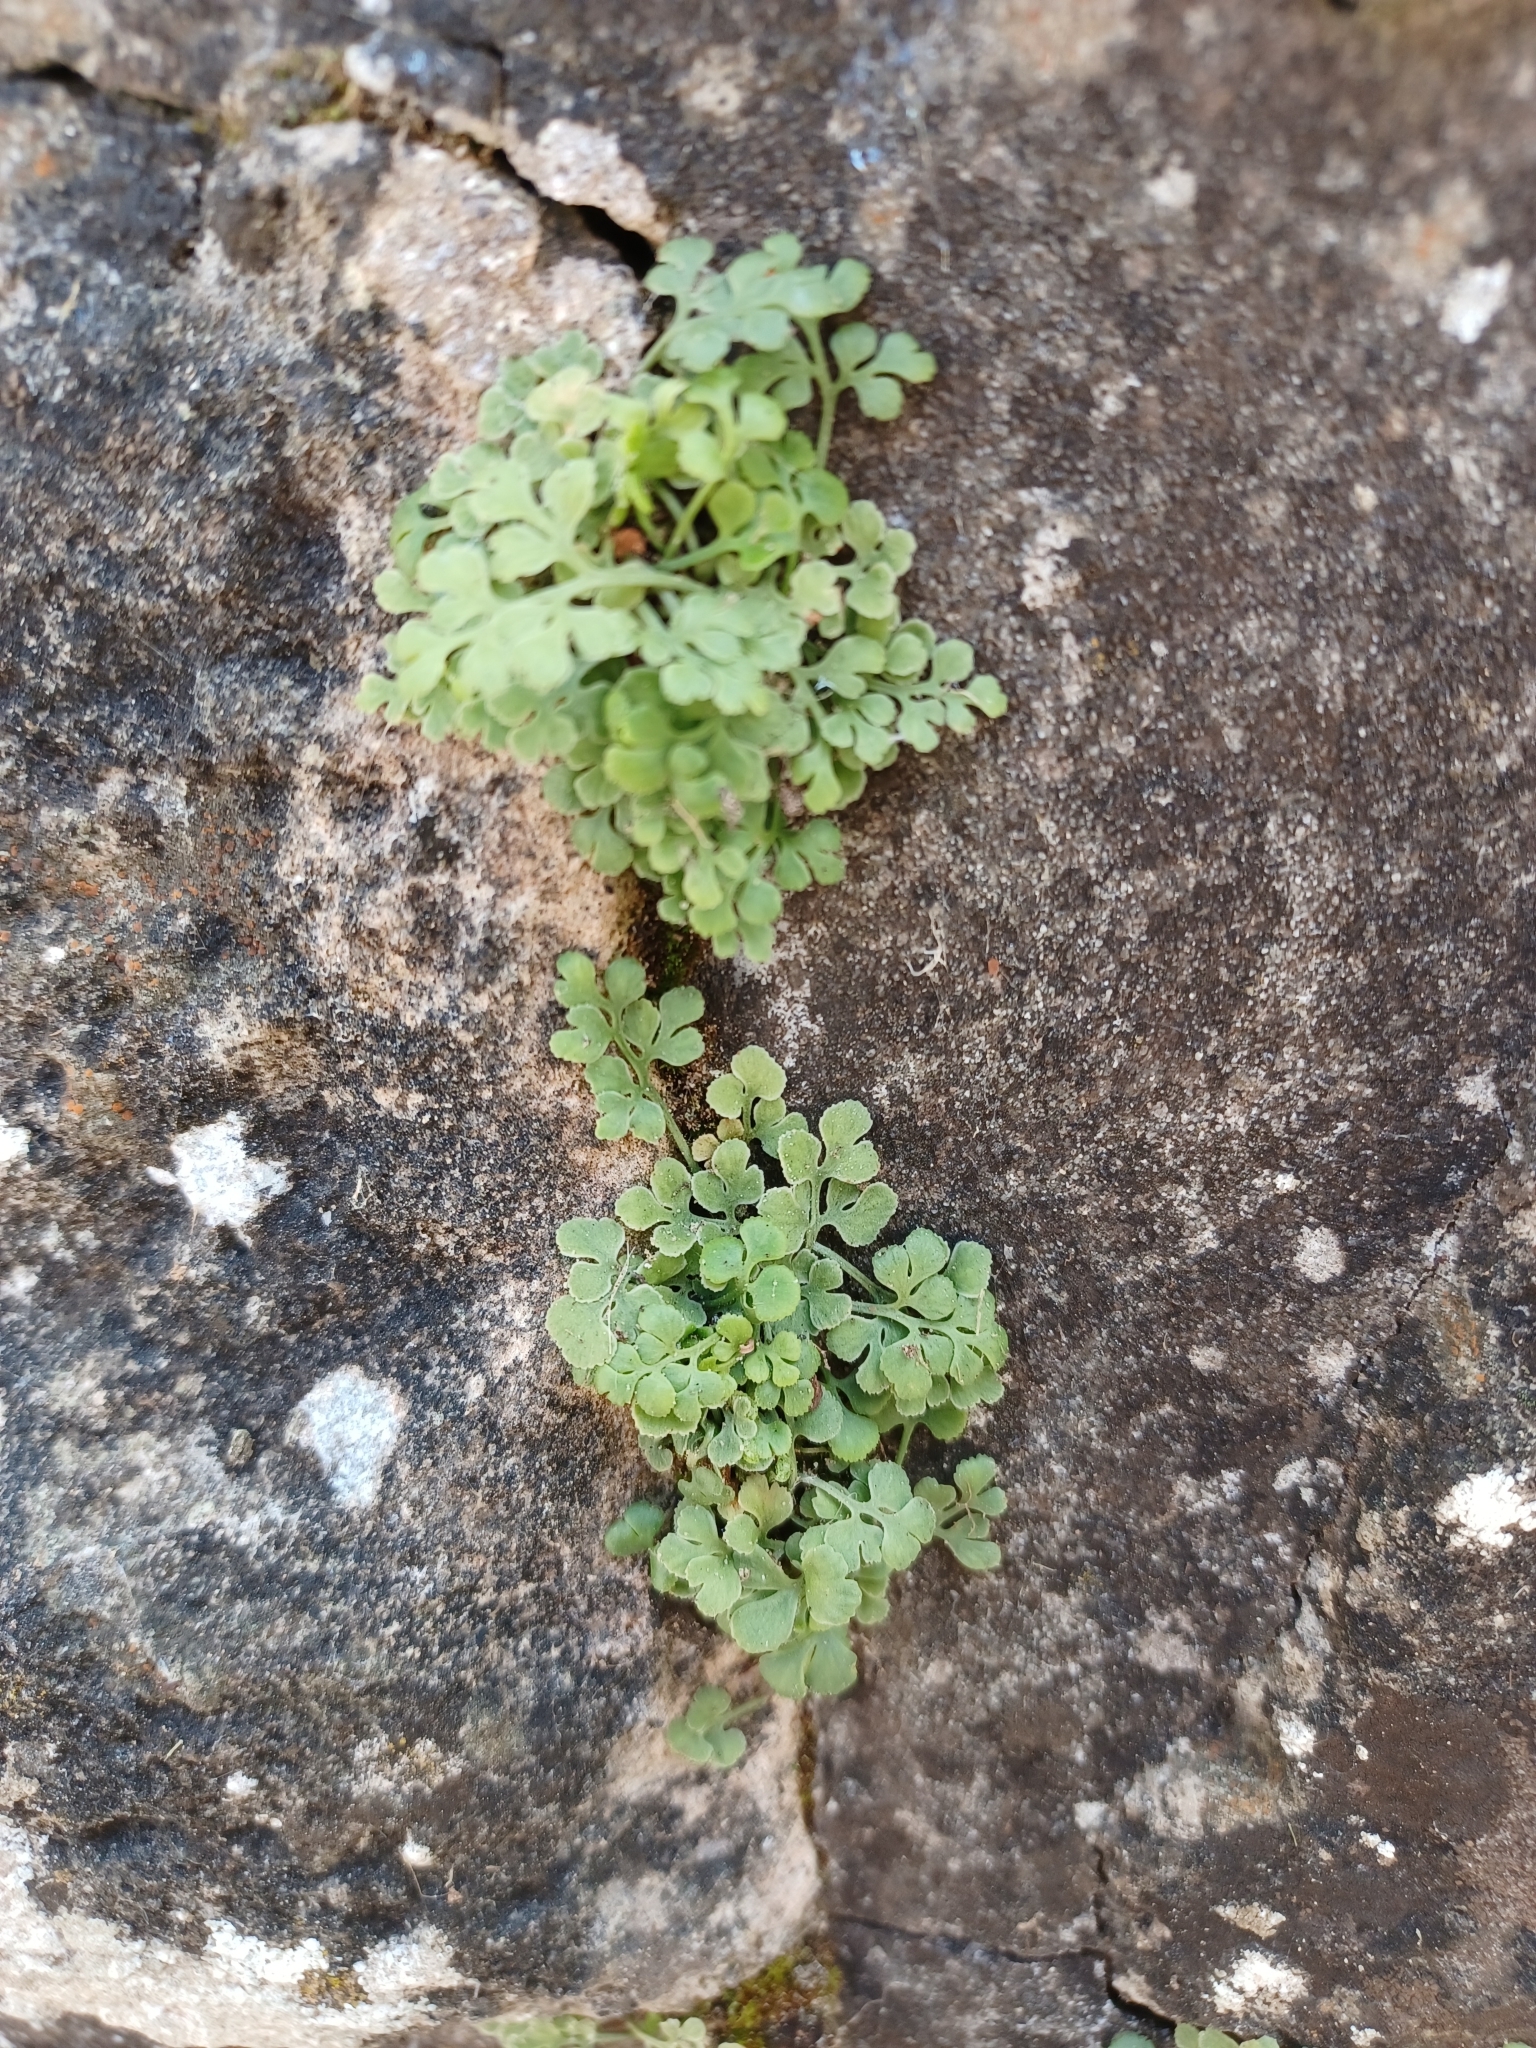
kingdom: Plantae
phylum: Tracheophyta
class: Polypodiopsida
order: Polypodiales
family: Aspleniaceae
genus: Asplenium
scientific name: Asplenium ruta-muraria
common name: Wall-rue
